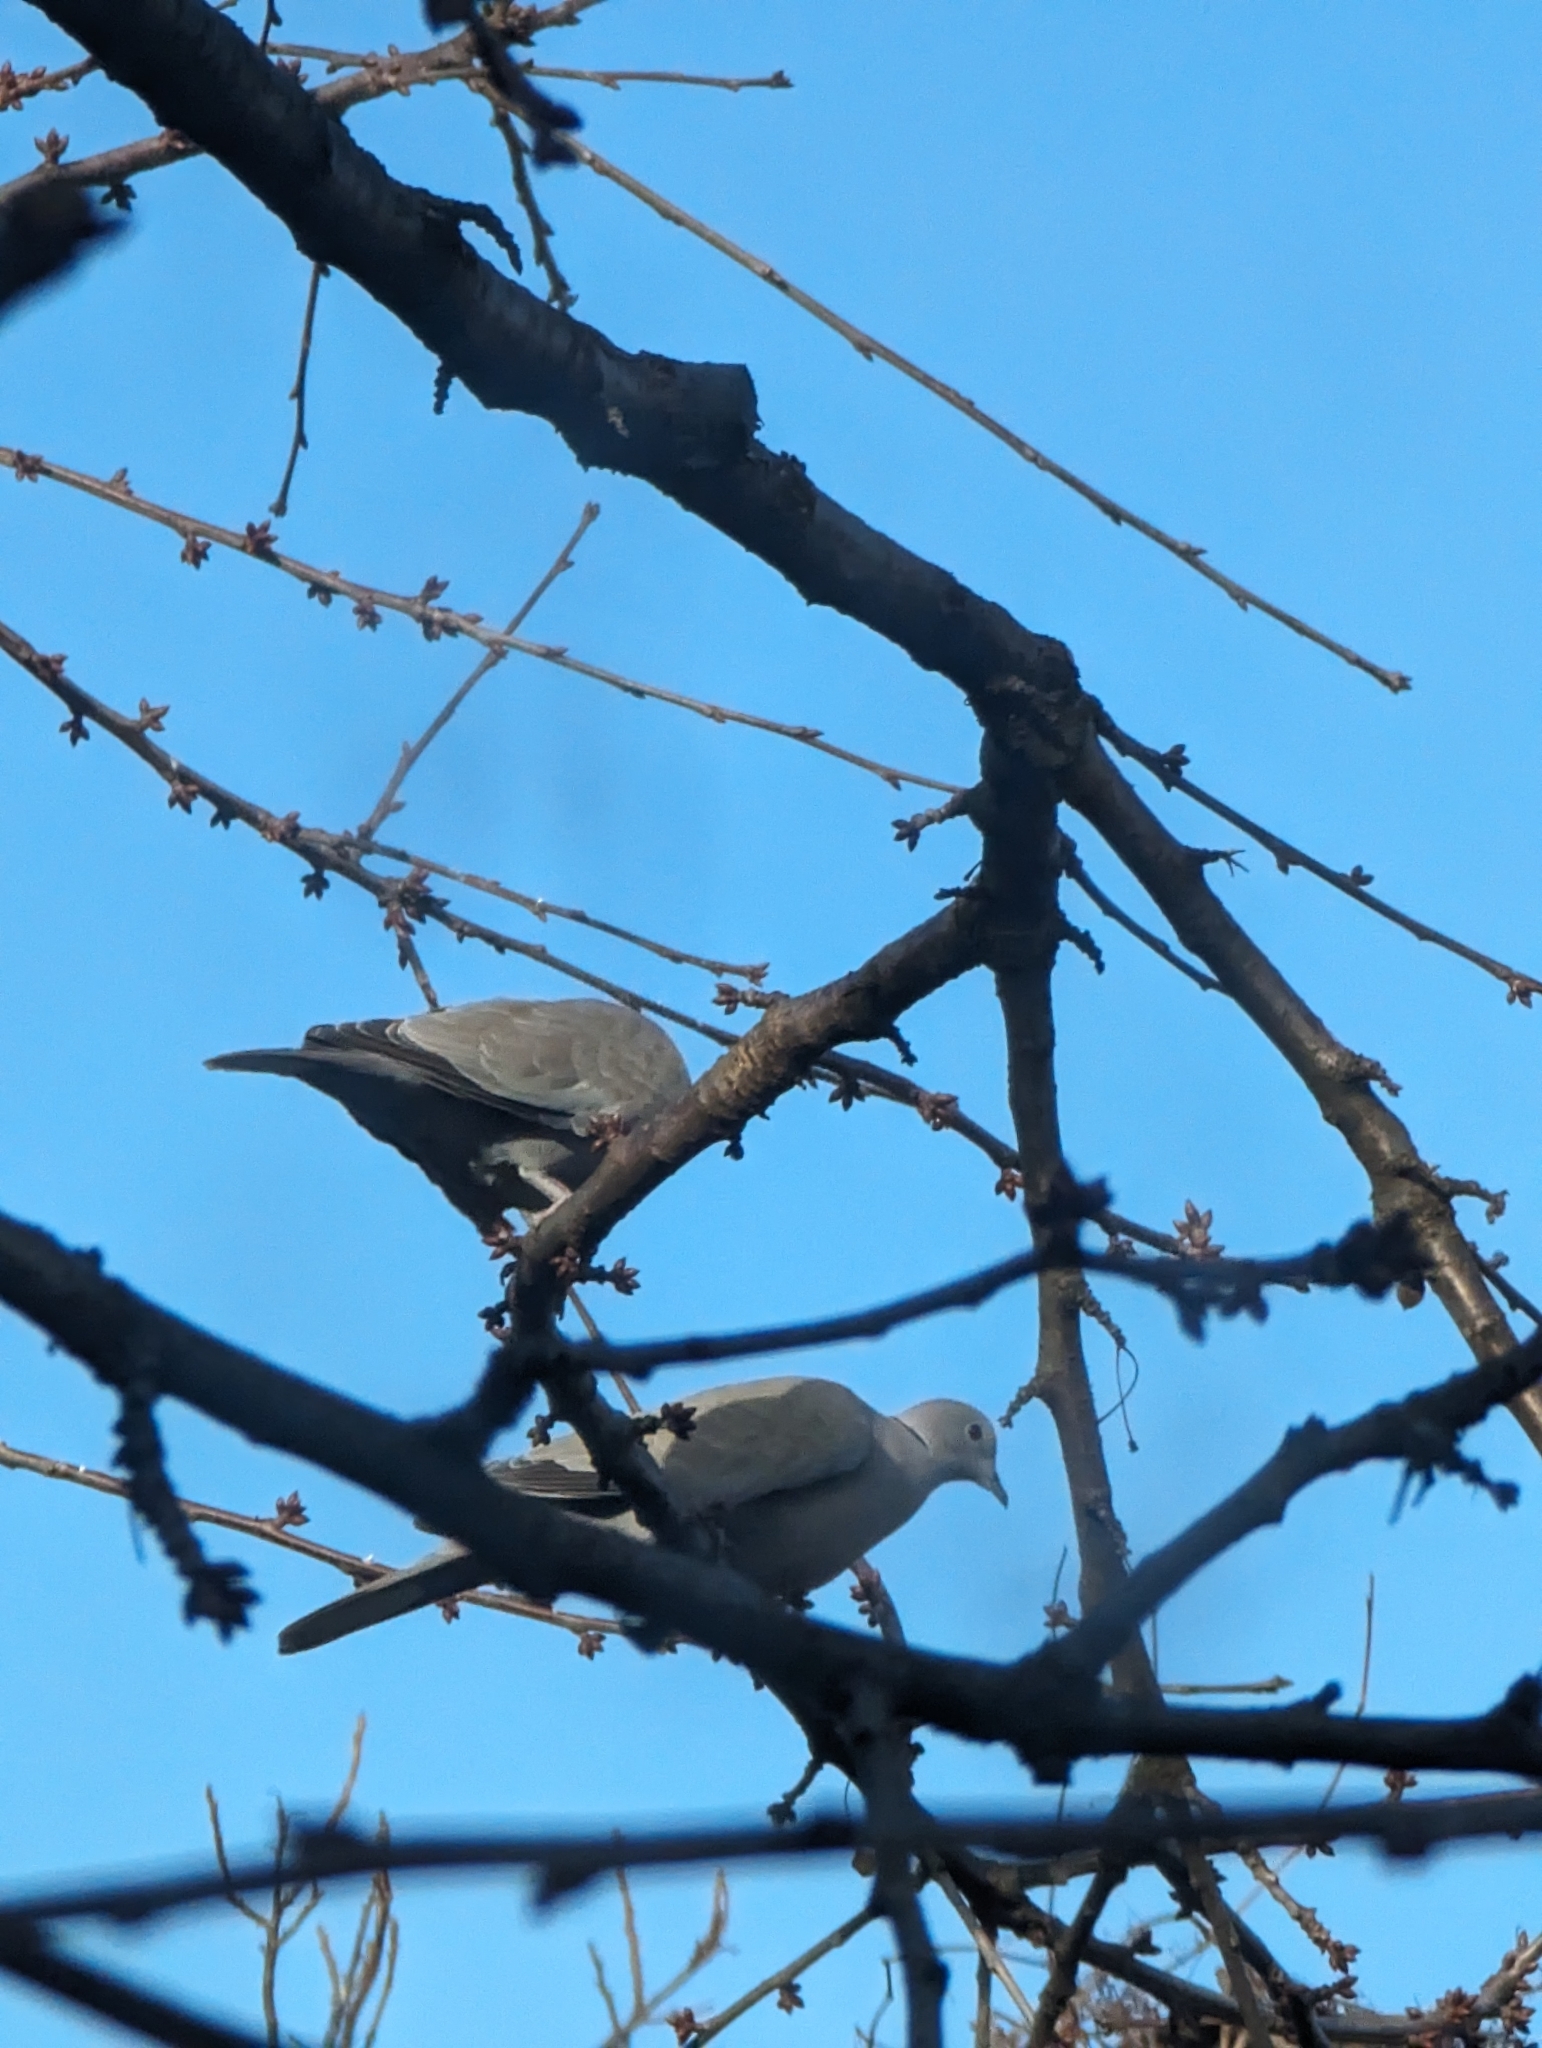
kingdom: Animalia
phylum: Chordata
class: Aves
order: Columbiformes
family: Columbidae
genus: Streptopelia
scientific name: Streptopelia decaocto
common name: Eurasian collared dove
